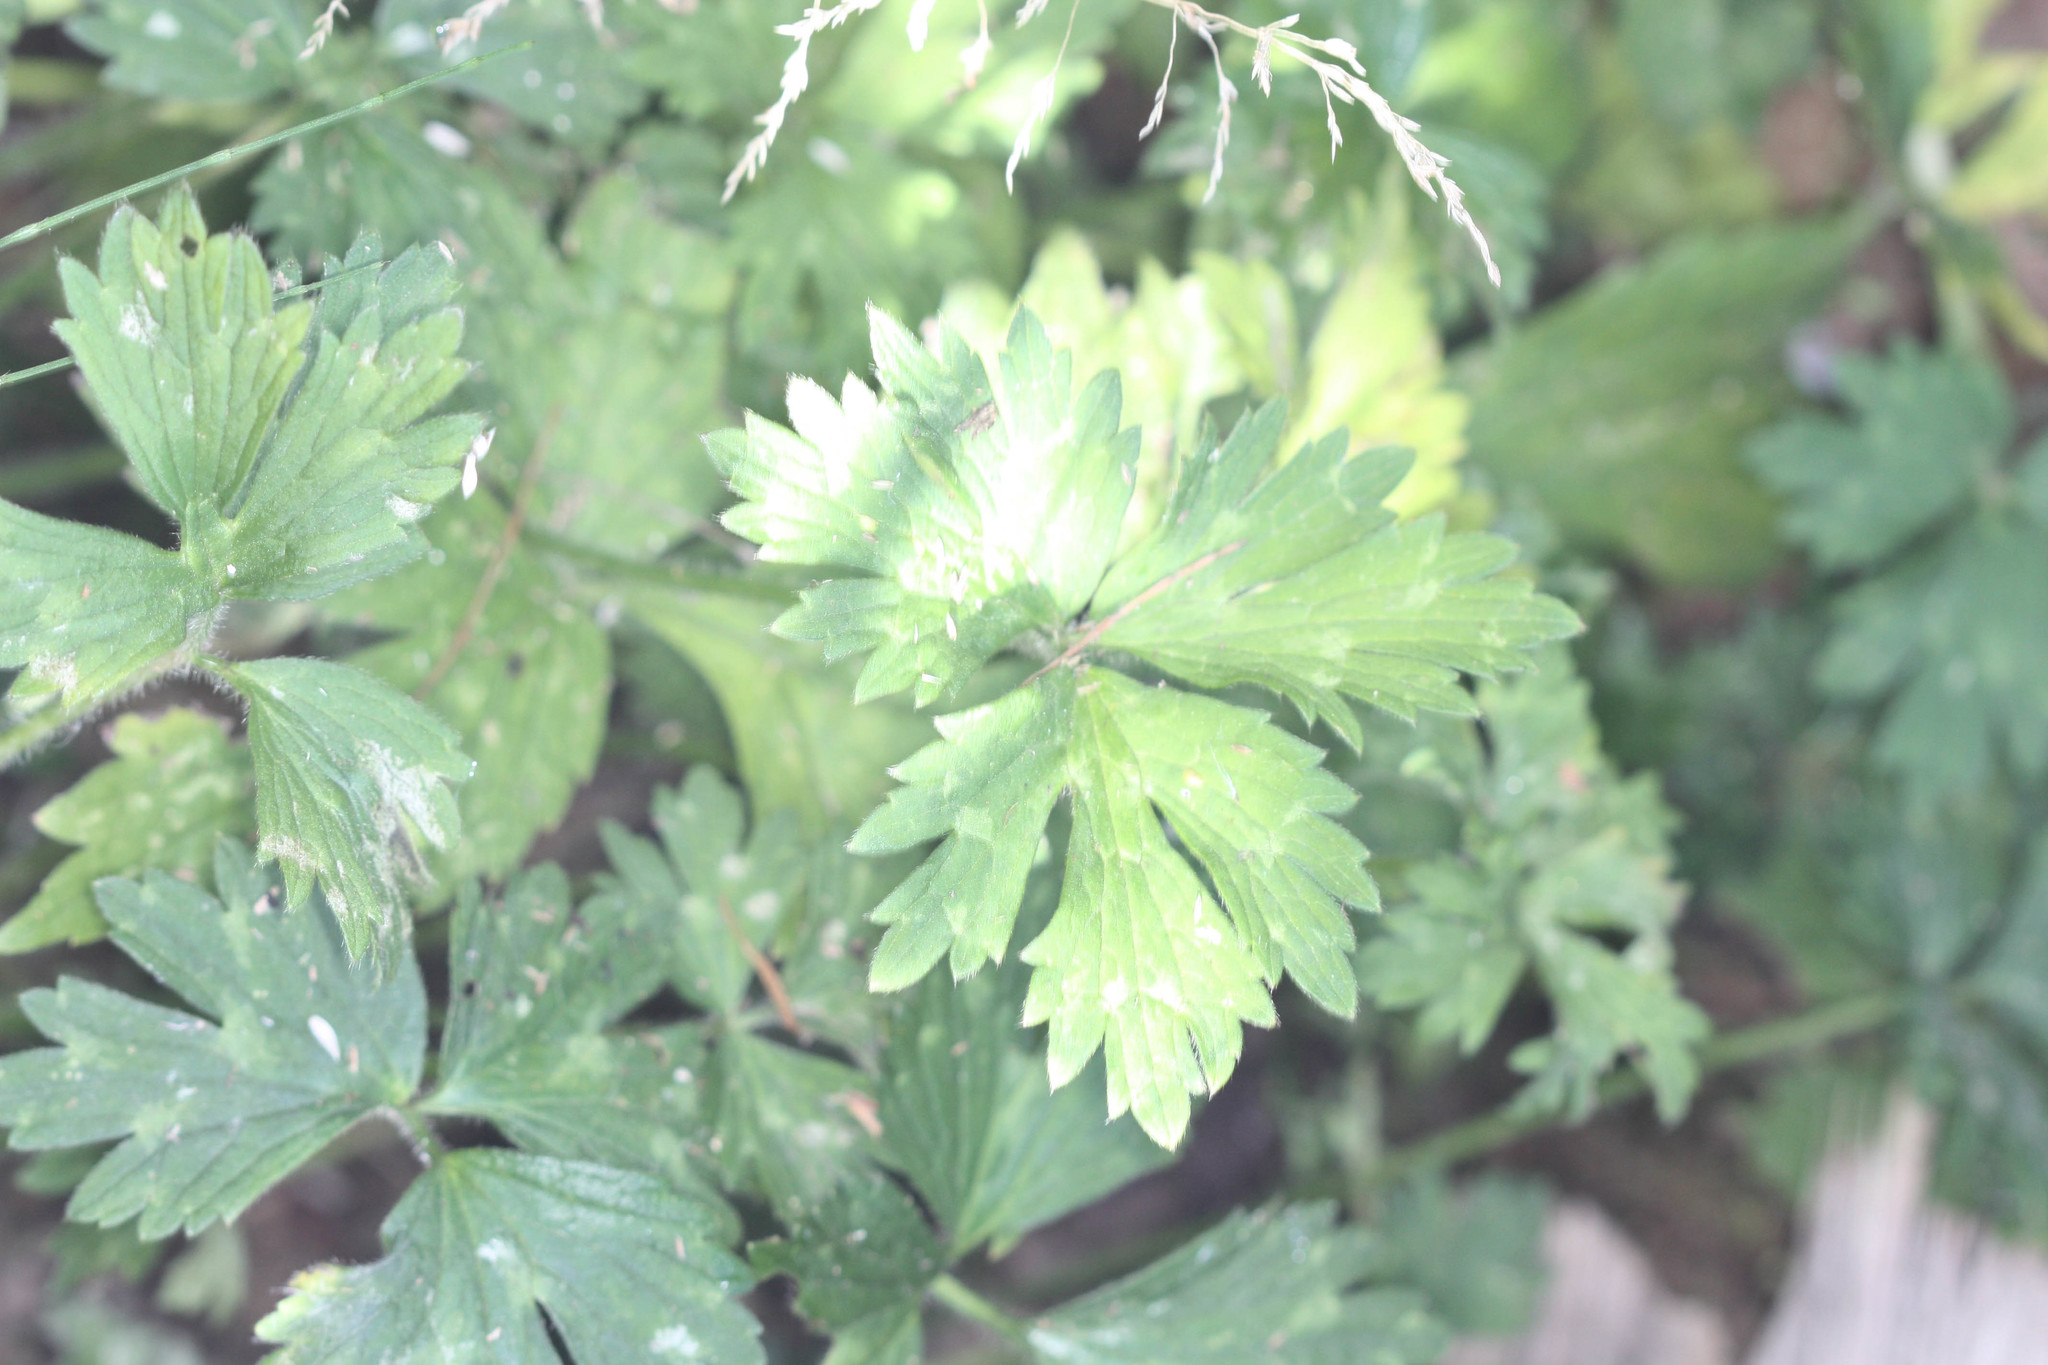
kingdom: Plantae
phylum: Tracheophyta
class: Magnoliopsida
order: Ranunculales
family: Ranunculaceae
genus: Ranunculus
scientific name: Ranunculus repens
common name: Creeping buttercup
